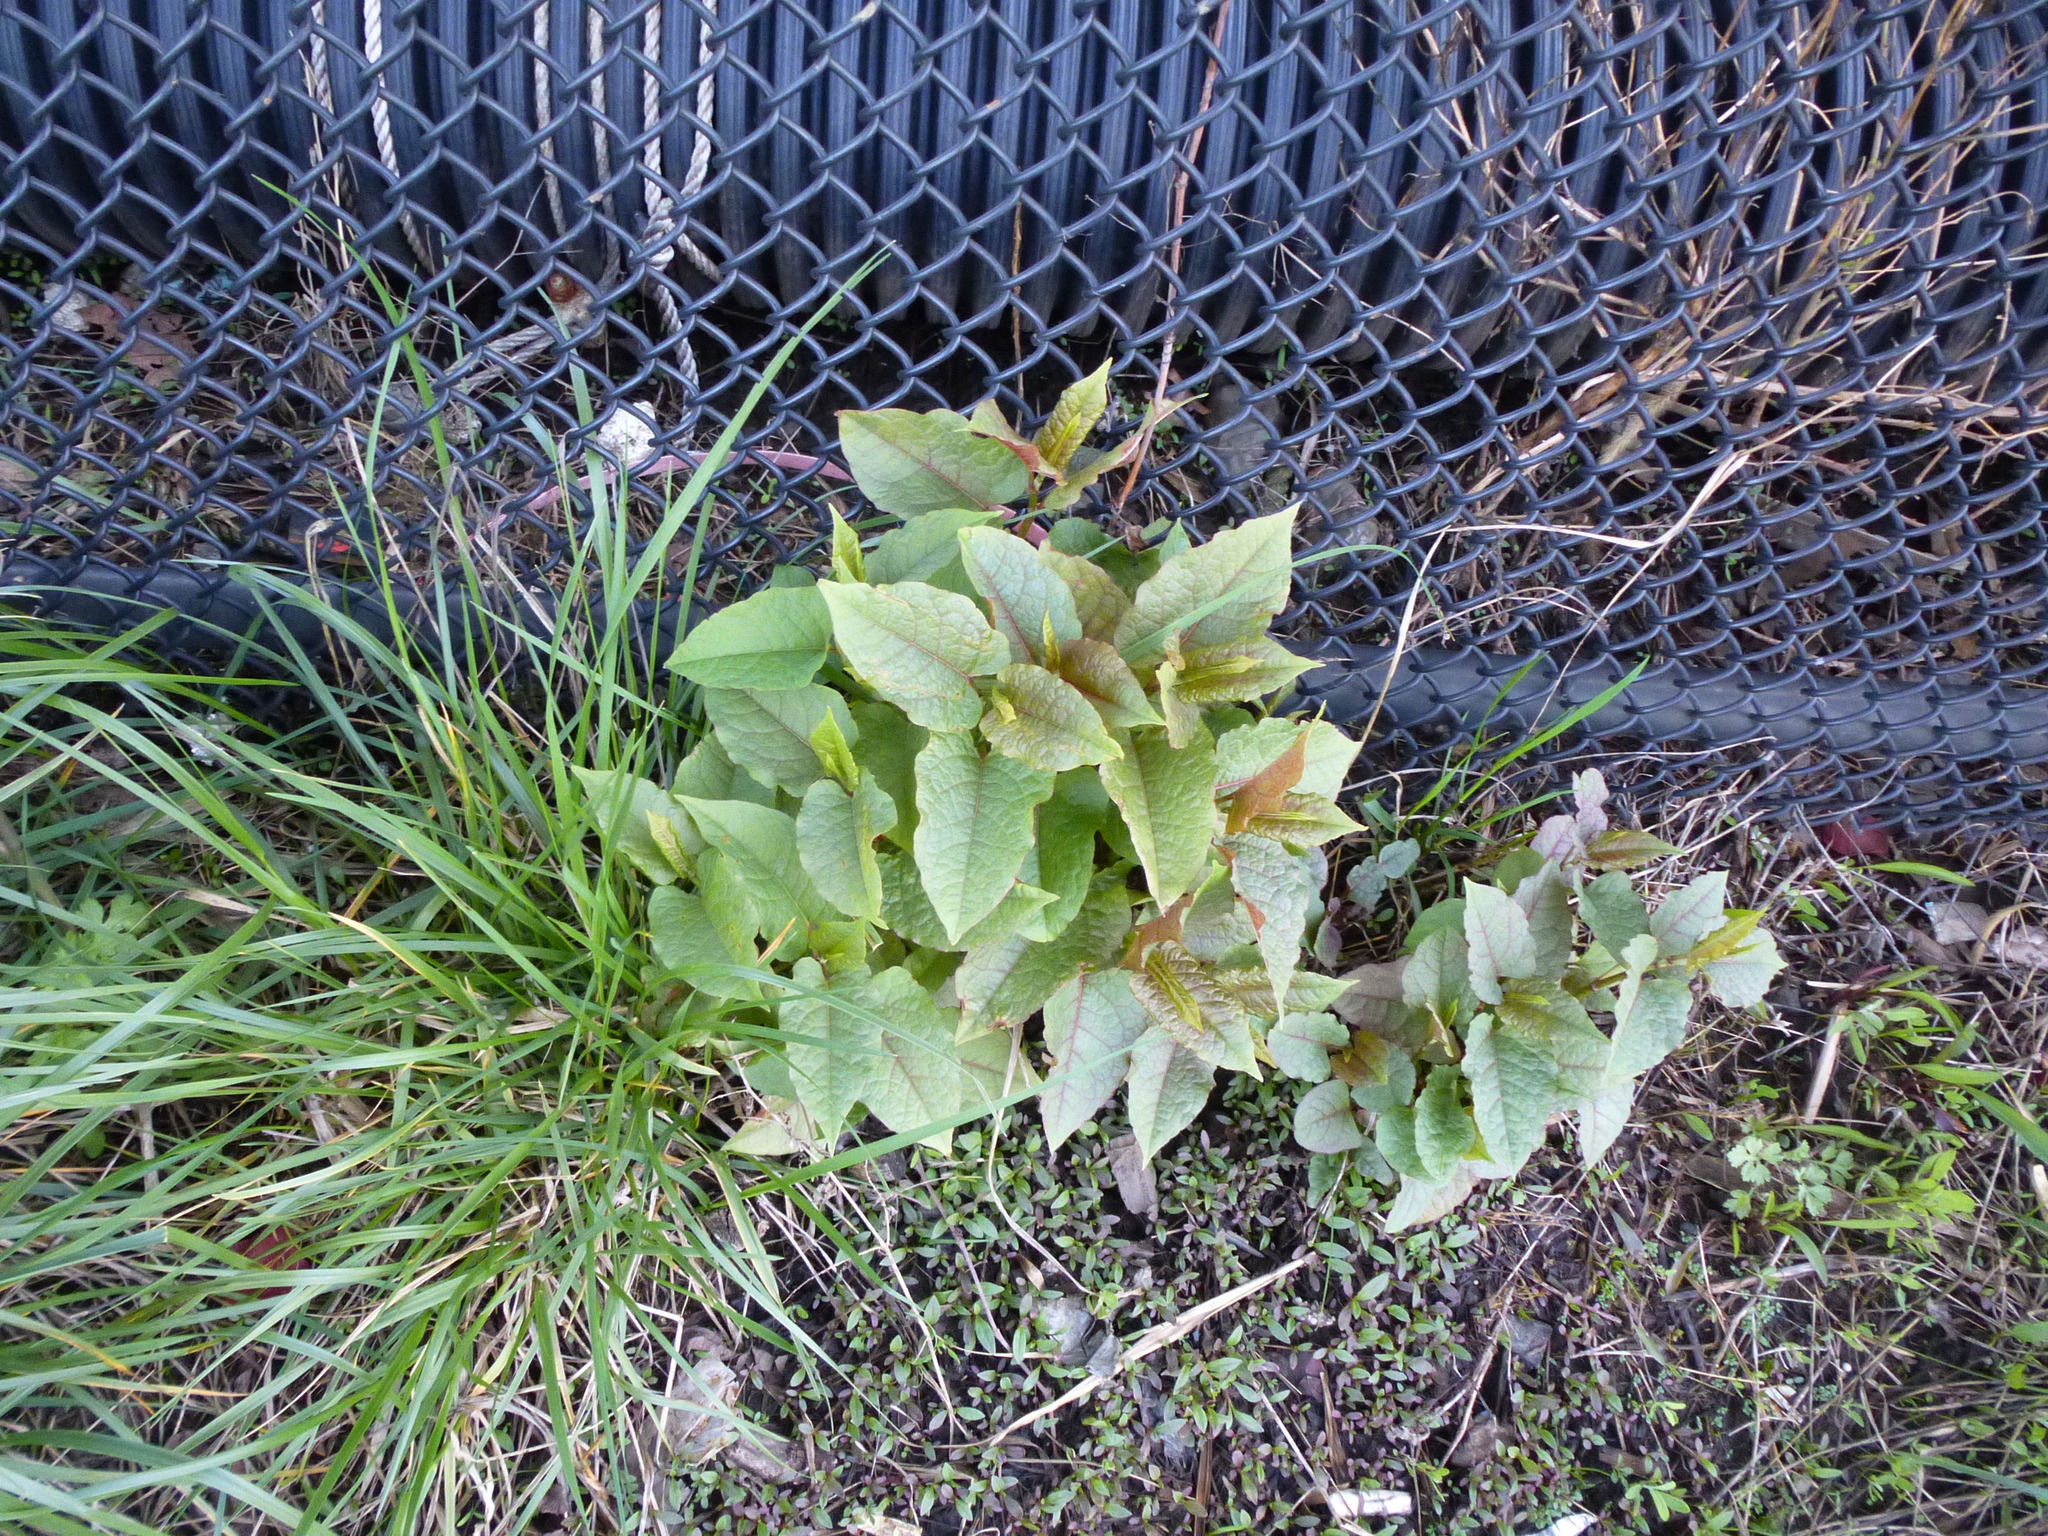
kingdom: Plantae
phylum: Tracheophyta
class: Magnoliopsida
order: Caryophyllales
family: Polygonaceae
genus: Reynoutria
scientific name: Reynoutria japonica
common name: Japanese knotweed
